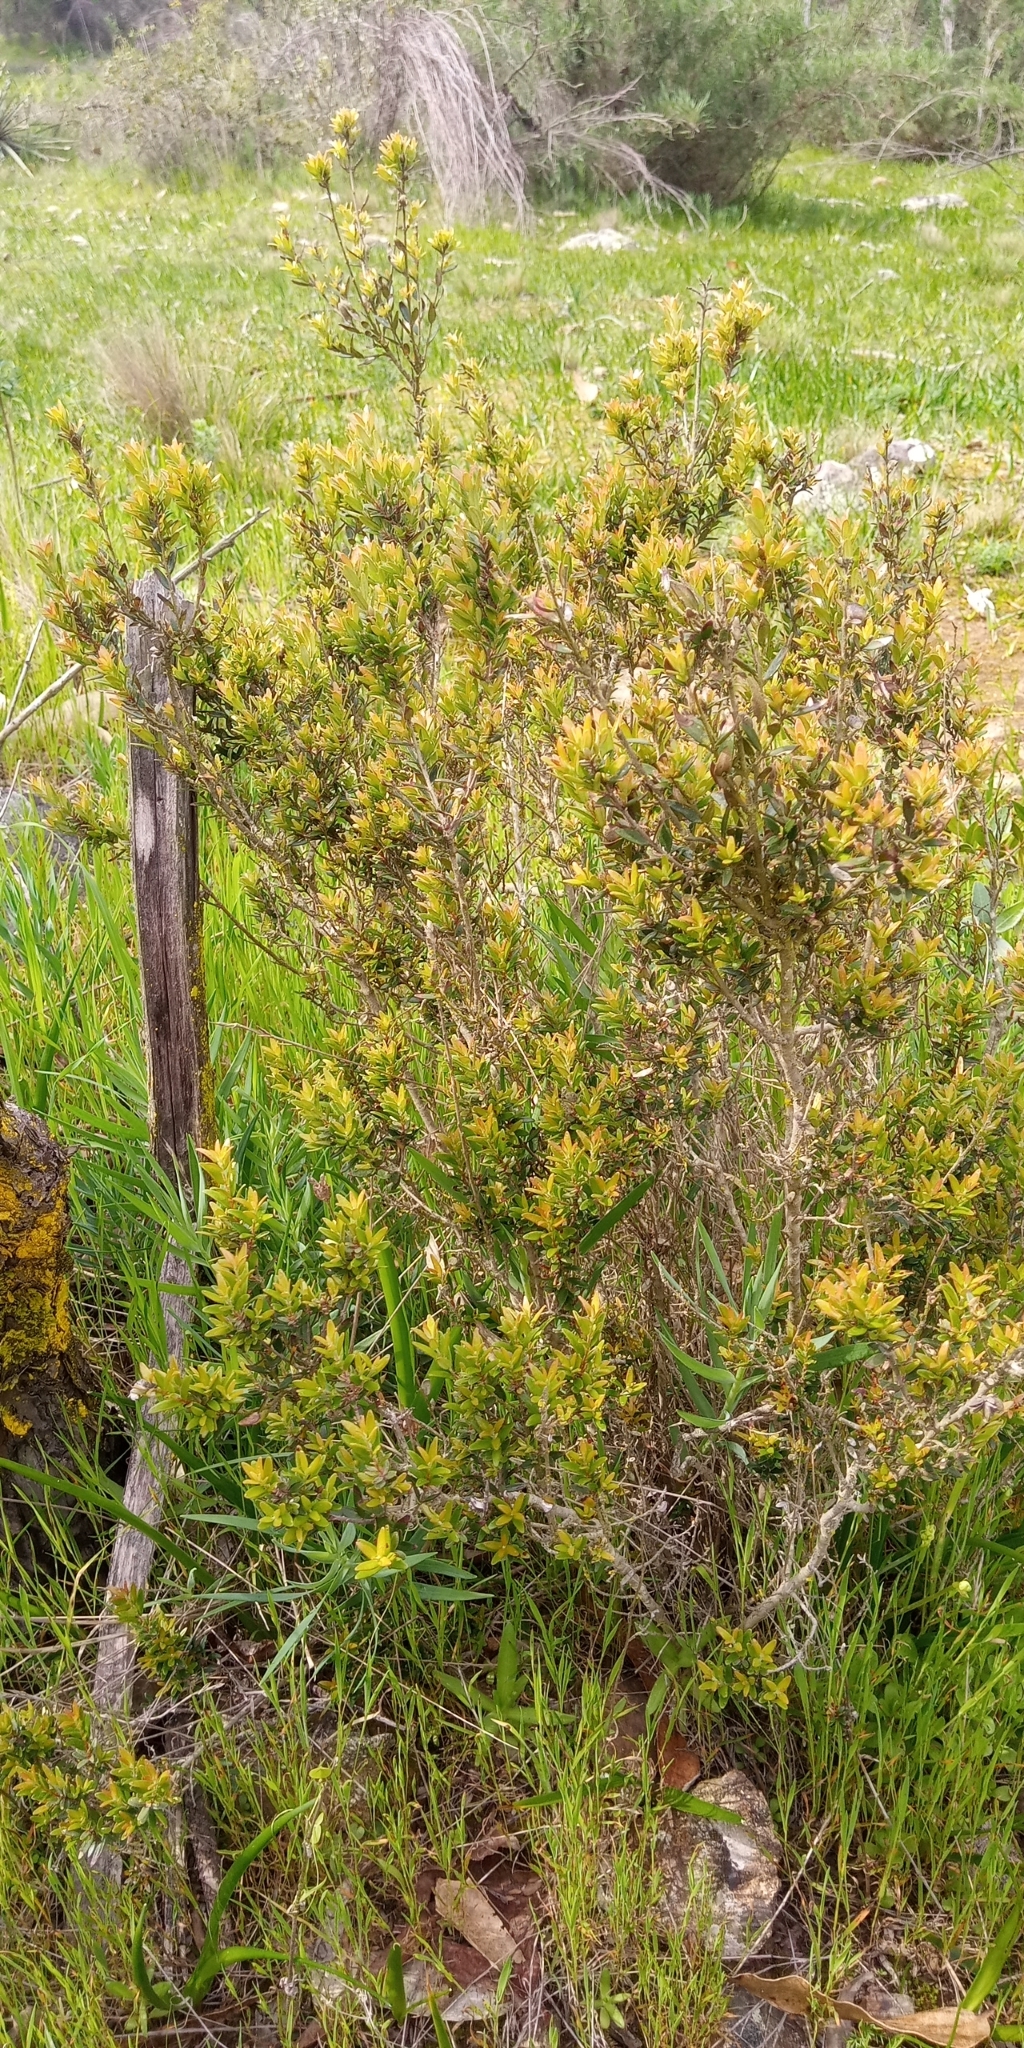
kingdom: Plantae
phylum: Tracheophyta
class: Magnoliopsida
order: Myrtales
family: Myrtaceae
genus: Myrceugenia
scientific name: Myrceugenia rufa
